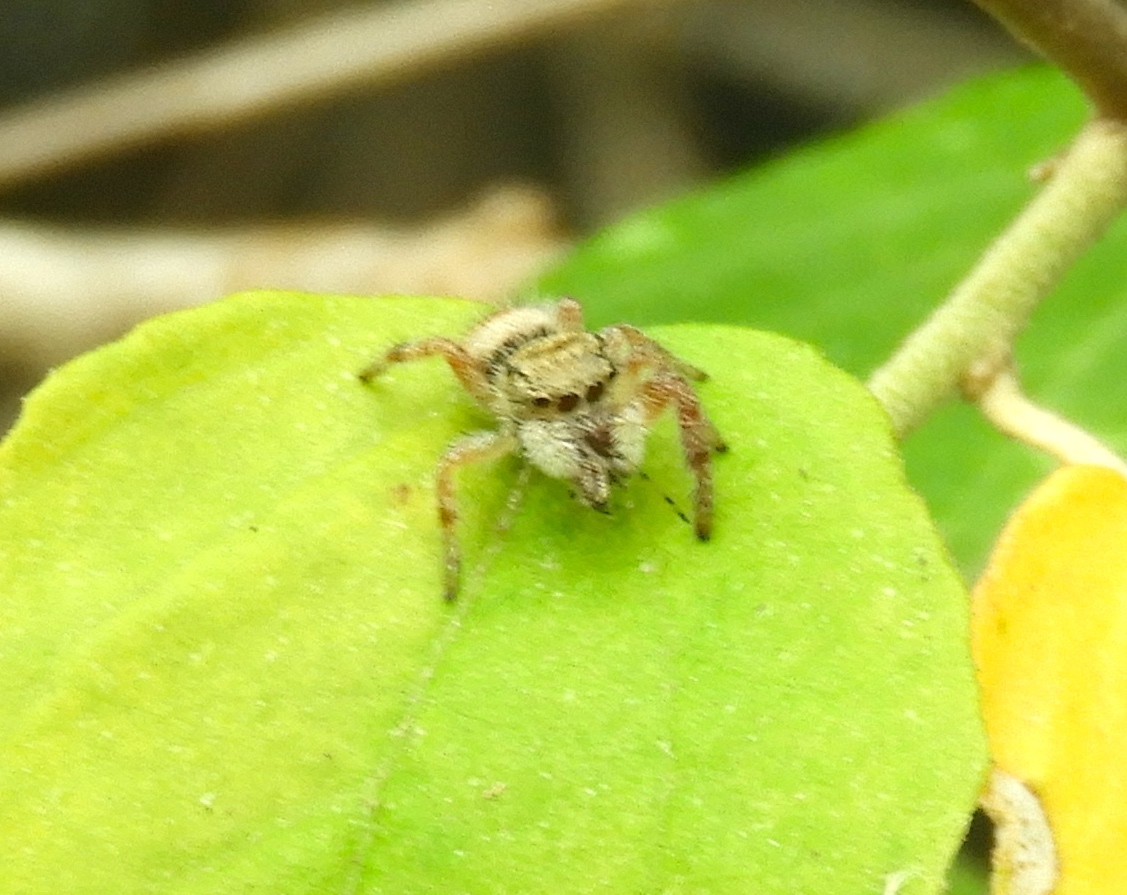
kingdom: Animalia
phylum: Arthropoda
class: Arachnida
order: Araneae
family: Salticidae
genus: Phidippus
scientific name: Phidippus pacosauritus
